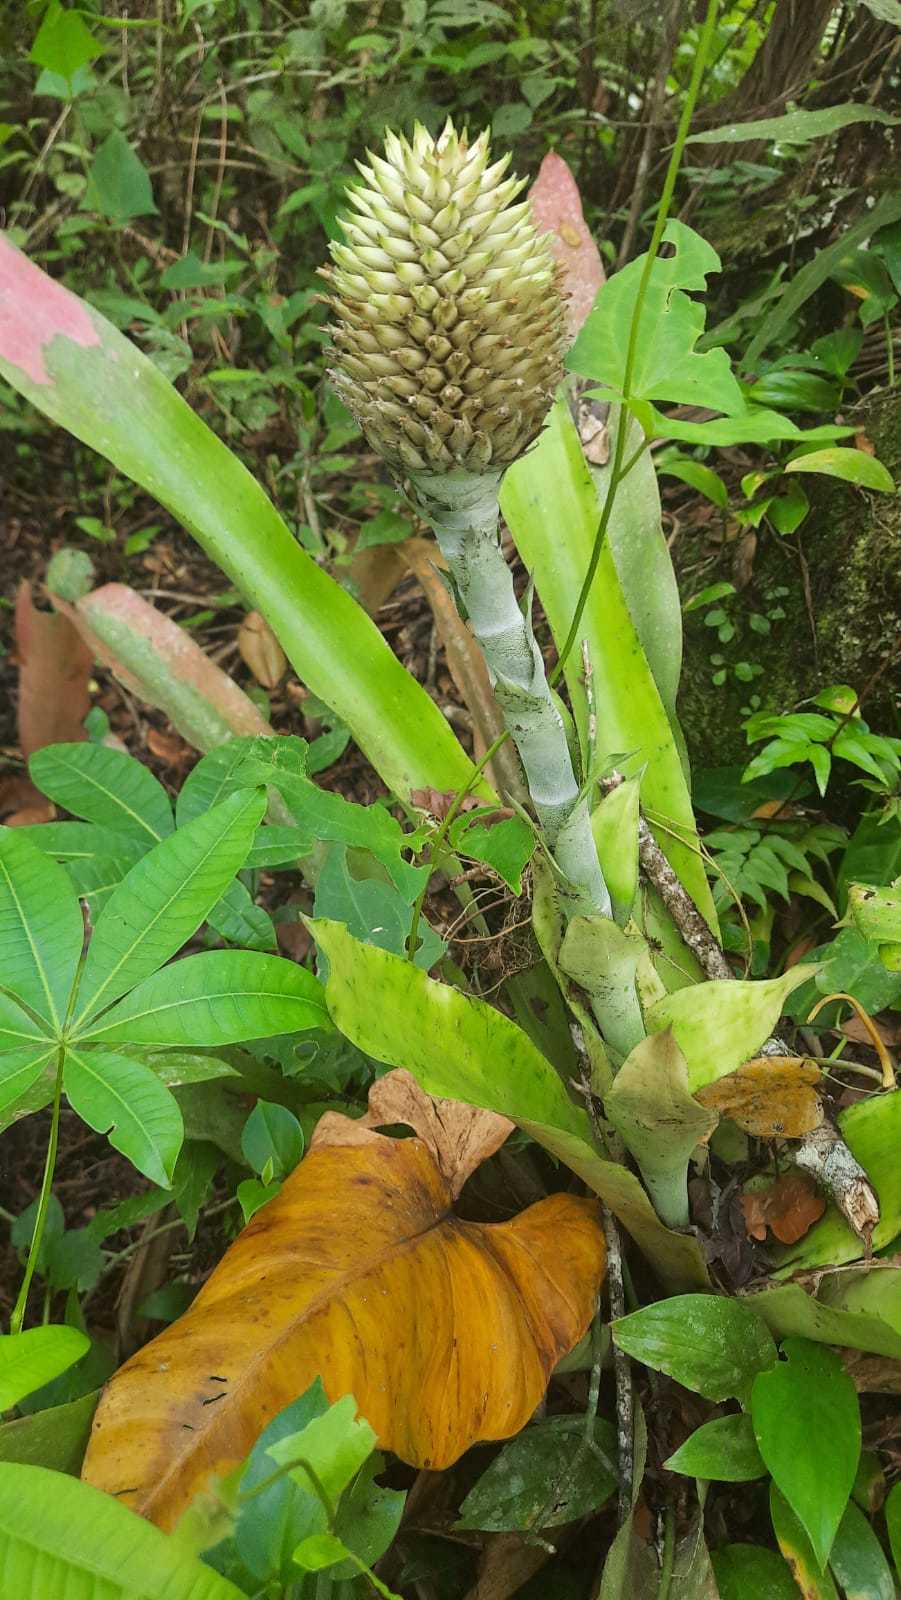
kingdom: Plantae
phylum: Tracheophyta
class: Liliopsida
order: Poales
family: Bromeliaceae
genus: Aechmea
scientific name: Aechmea pectinata
